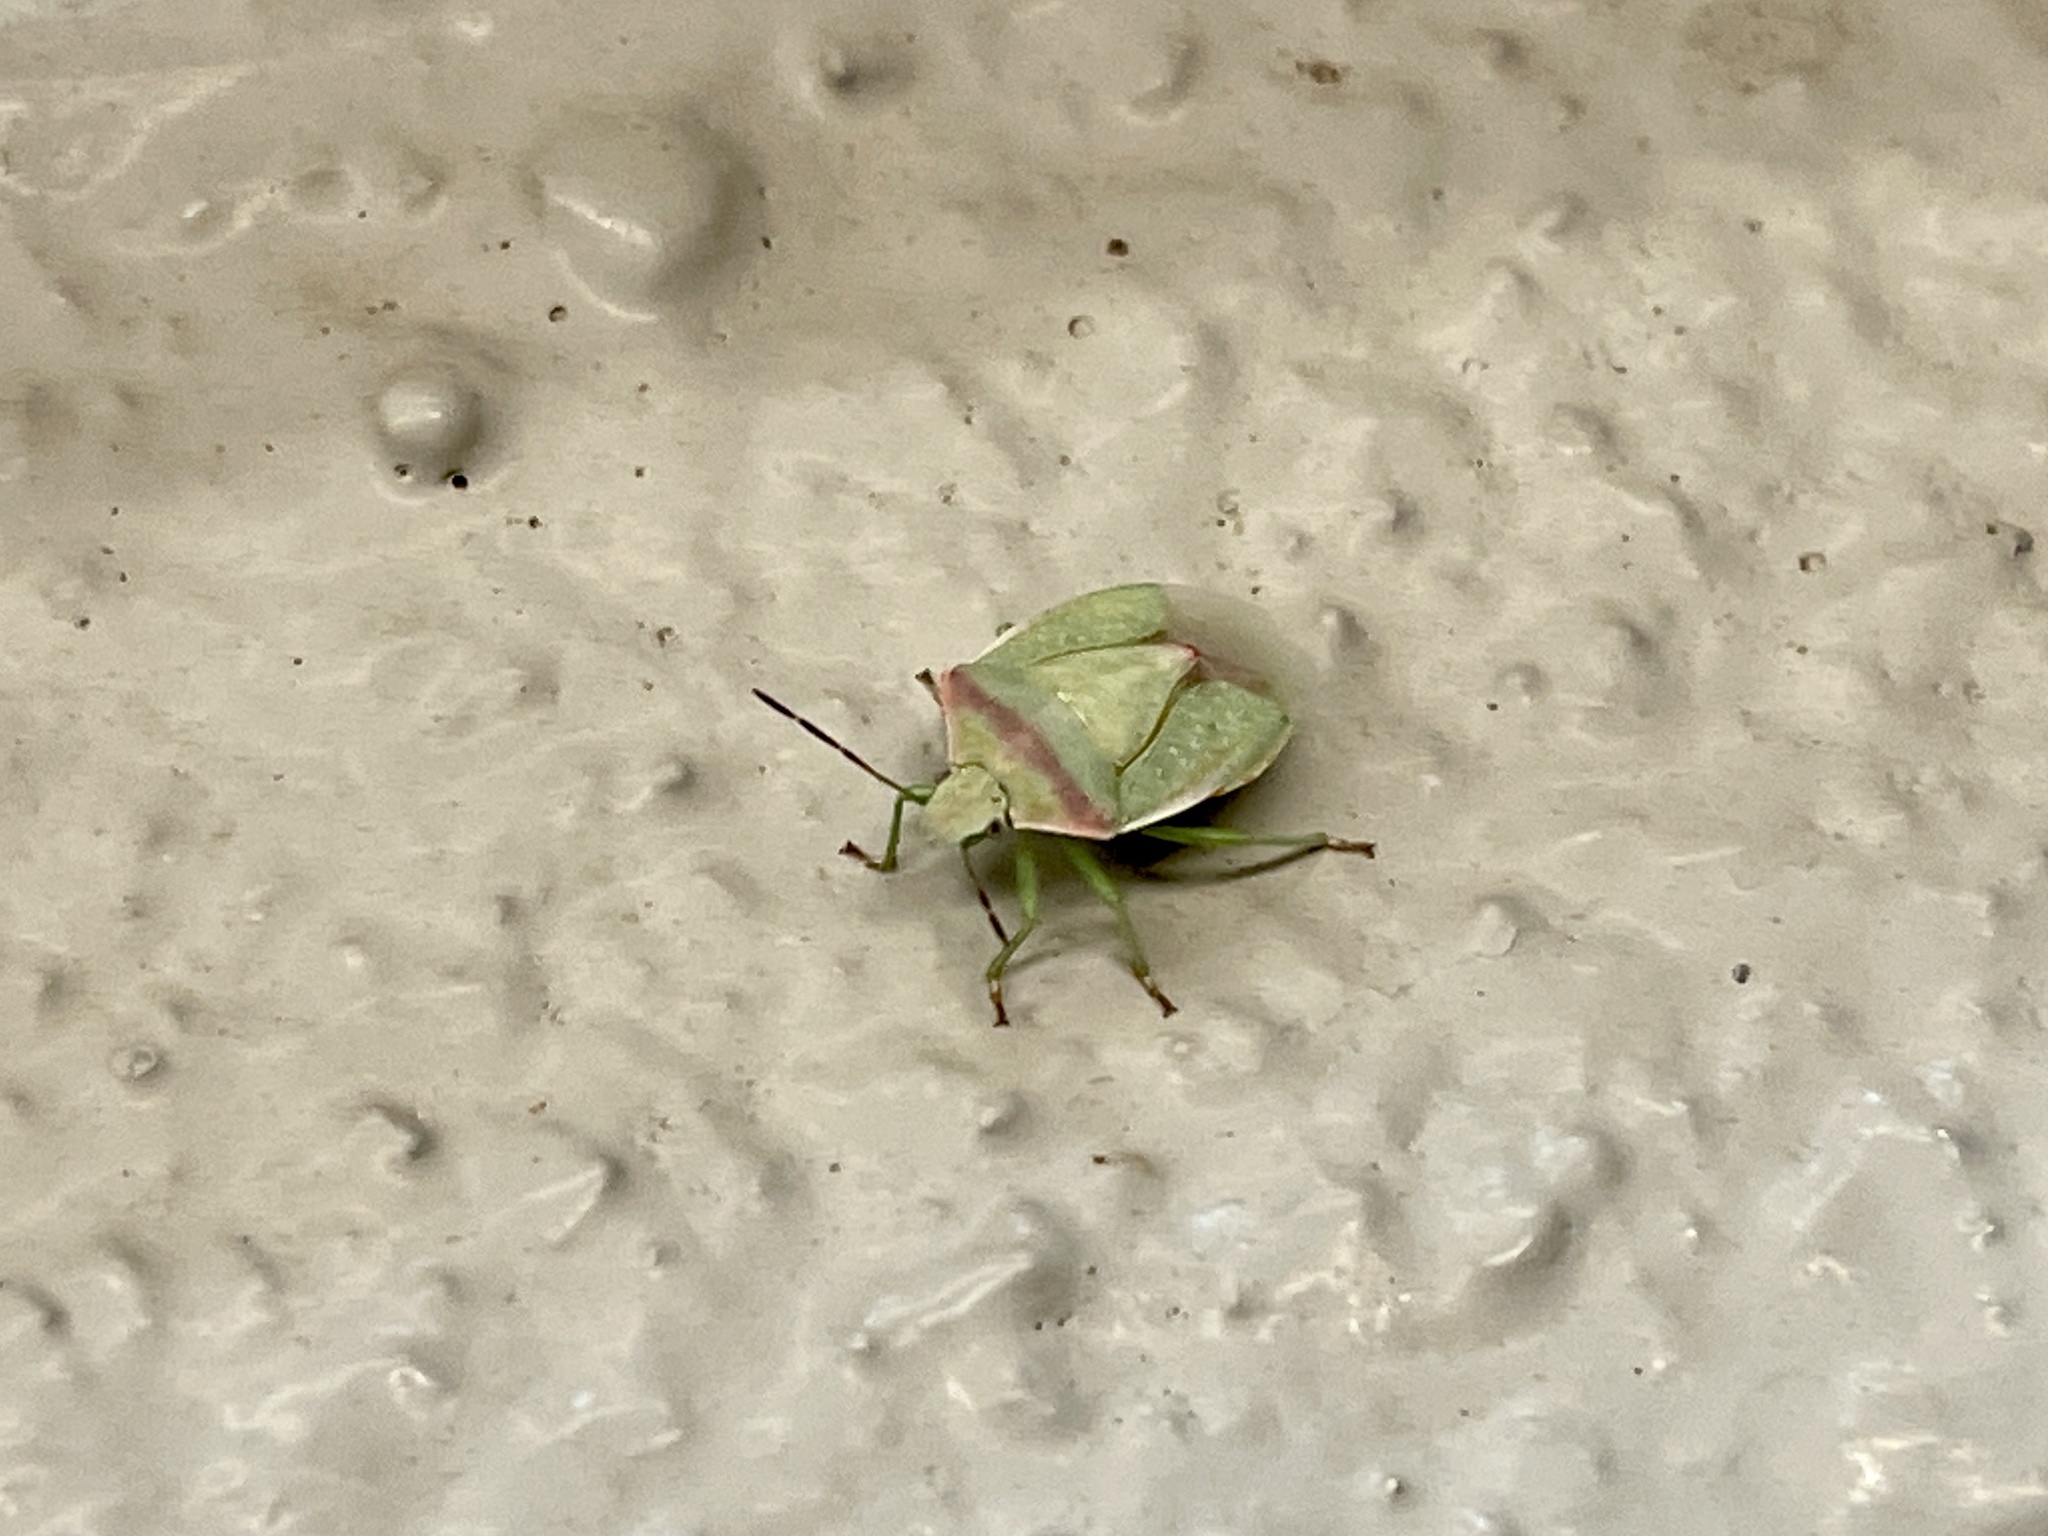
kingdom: Animalia
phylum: Arthropoda
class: Insecta
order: Hemiptera
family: Pentatomidae
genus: Thyanta
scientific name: Thyanta accerra
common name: Stink bug
